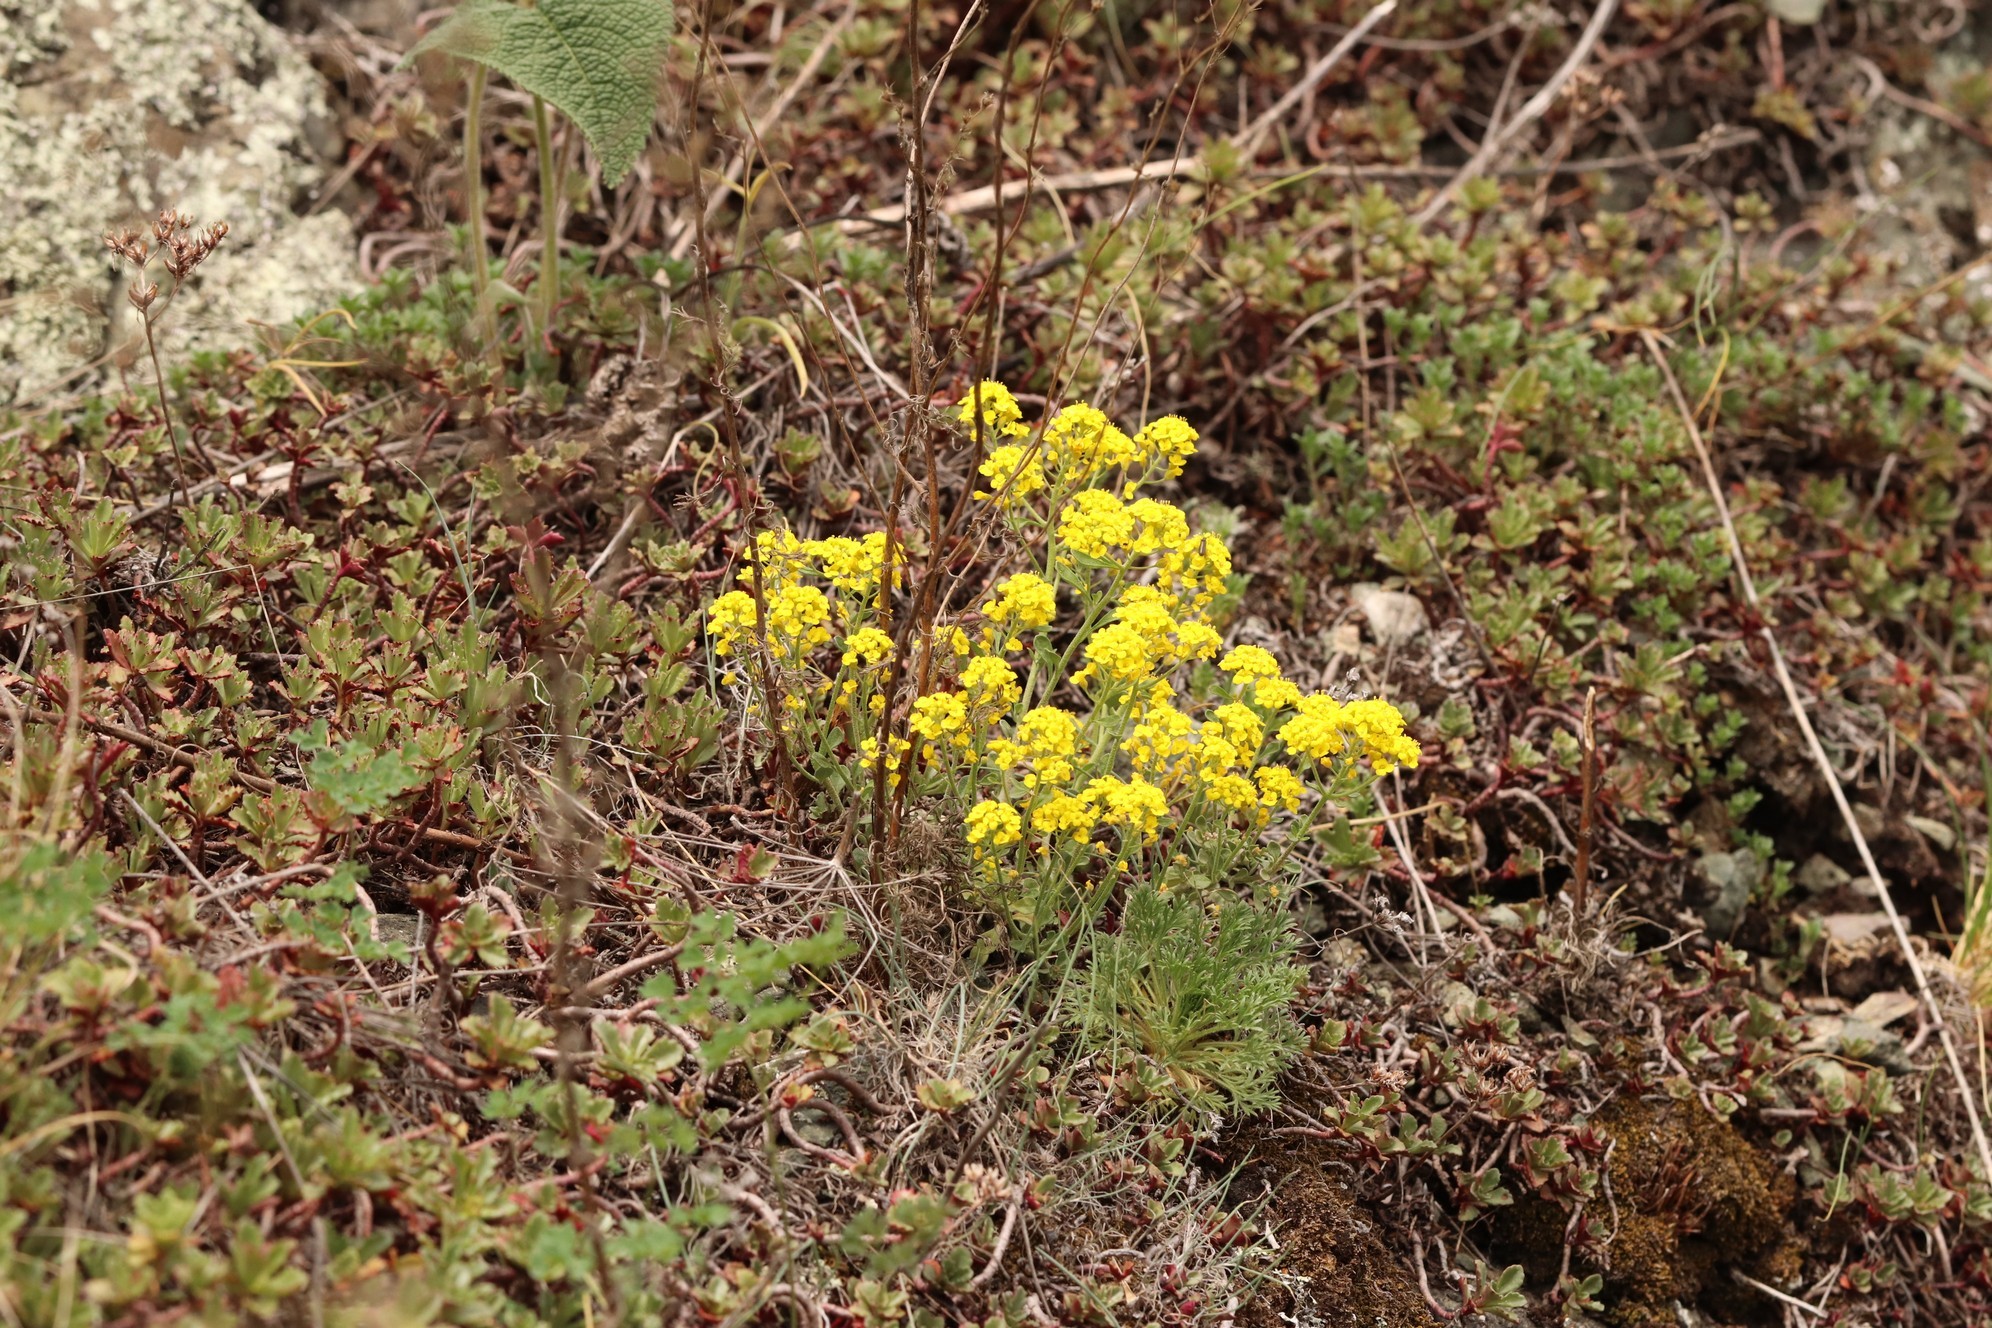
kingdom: Plantae
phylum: Tracheophyta
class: Magnoliopsida
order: Brassicales
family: Brassicaceae
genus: Odontarrhena
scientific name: Odontarrhena obovata
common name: American alyssum
